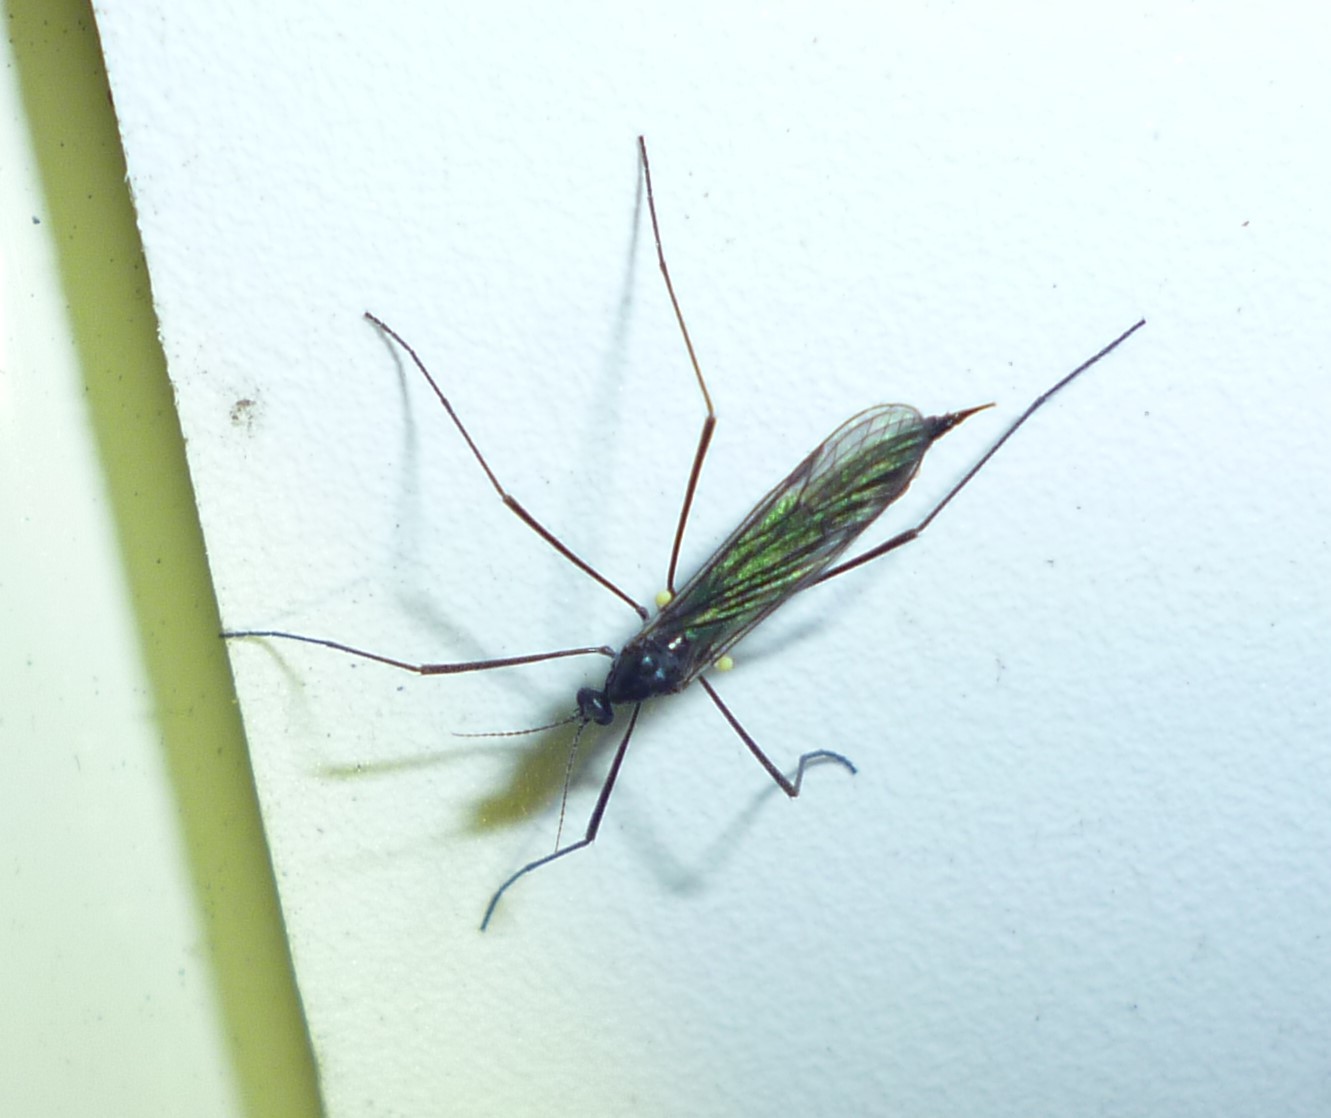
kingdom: Animalia
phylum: Arthropoda
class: Insecta
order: Diptera
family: Limoniidae
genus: Gnophomyia
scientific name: Gnophomyia tristissima
